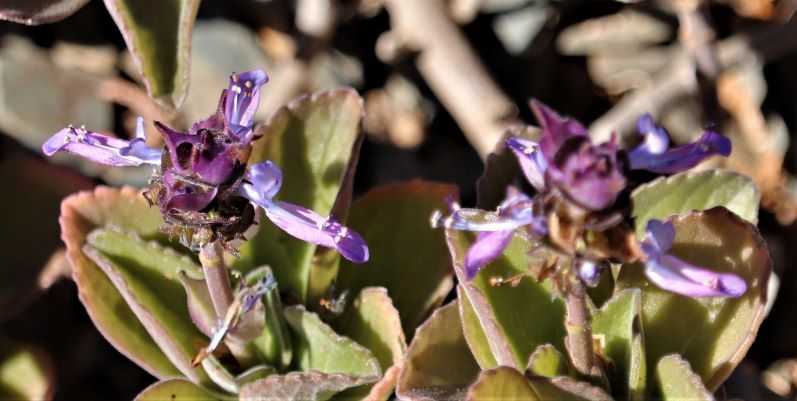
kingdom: Plantae
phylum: Tracheophyta
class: Magnoliopsida
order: Lamiales
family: Lamiaceae
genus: Coleus
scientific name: Coleus neochilus
